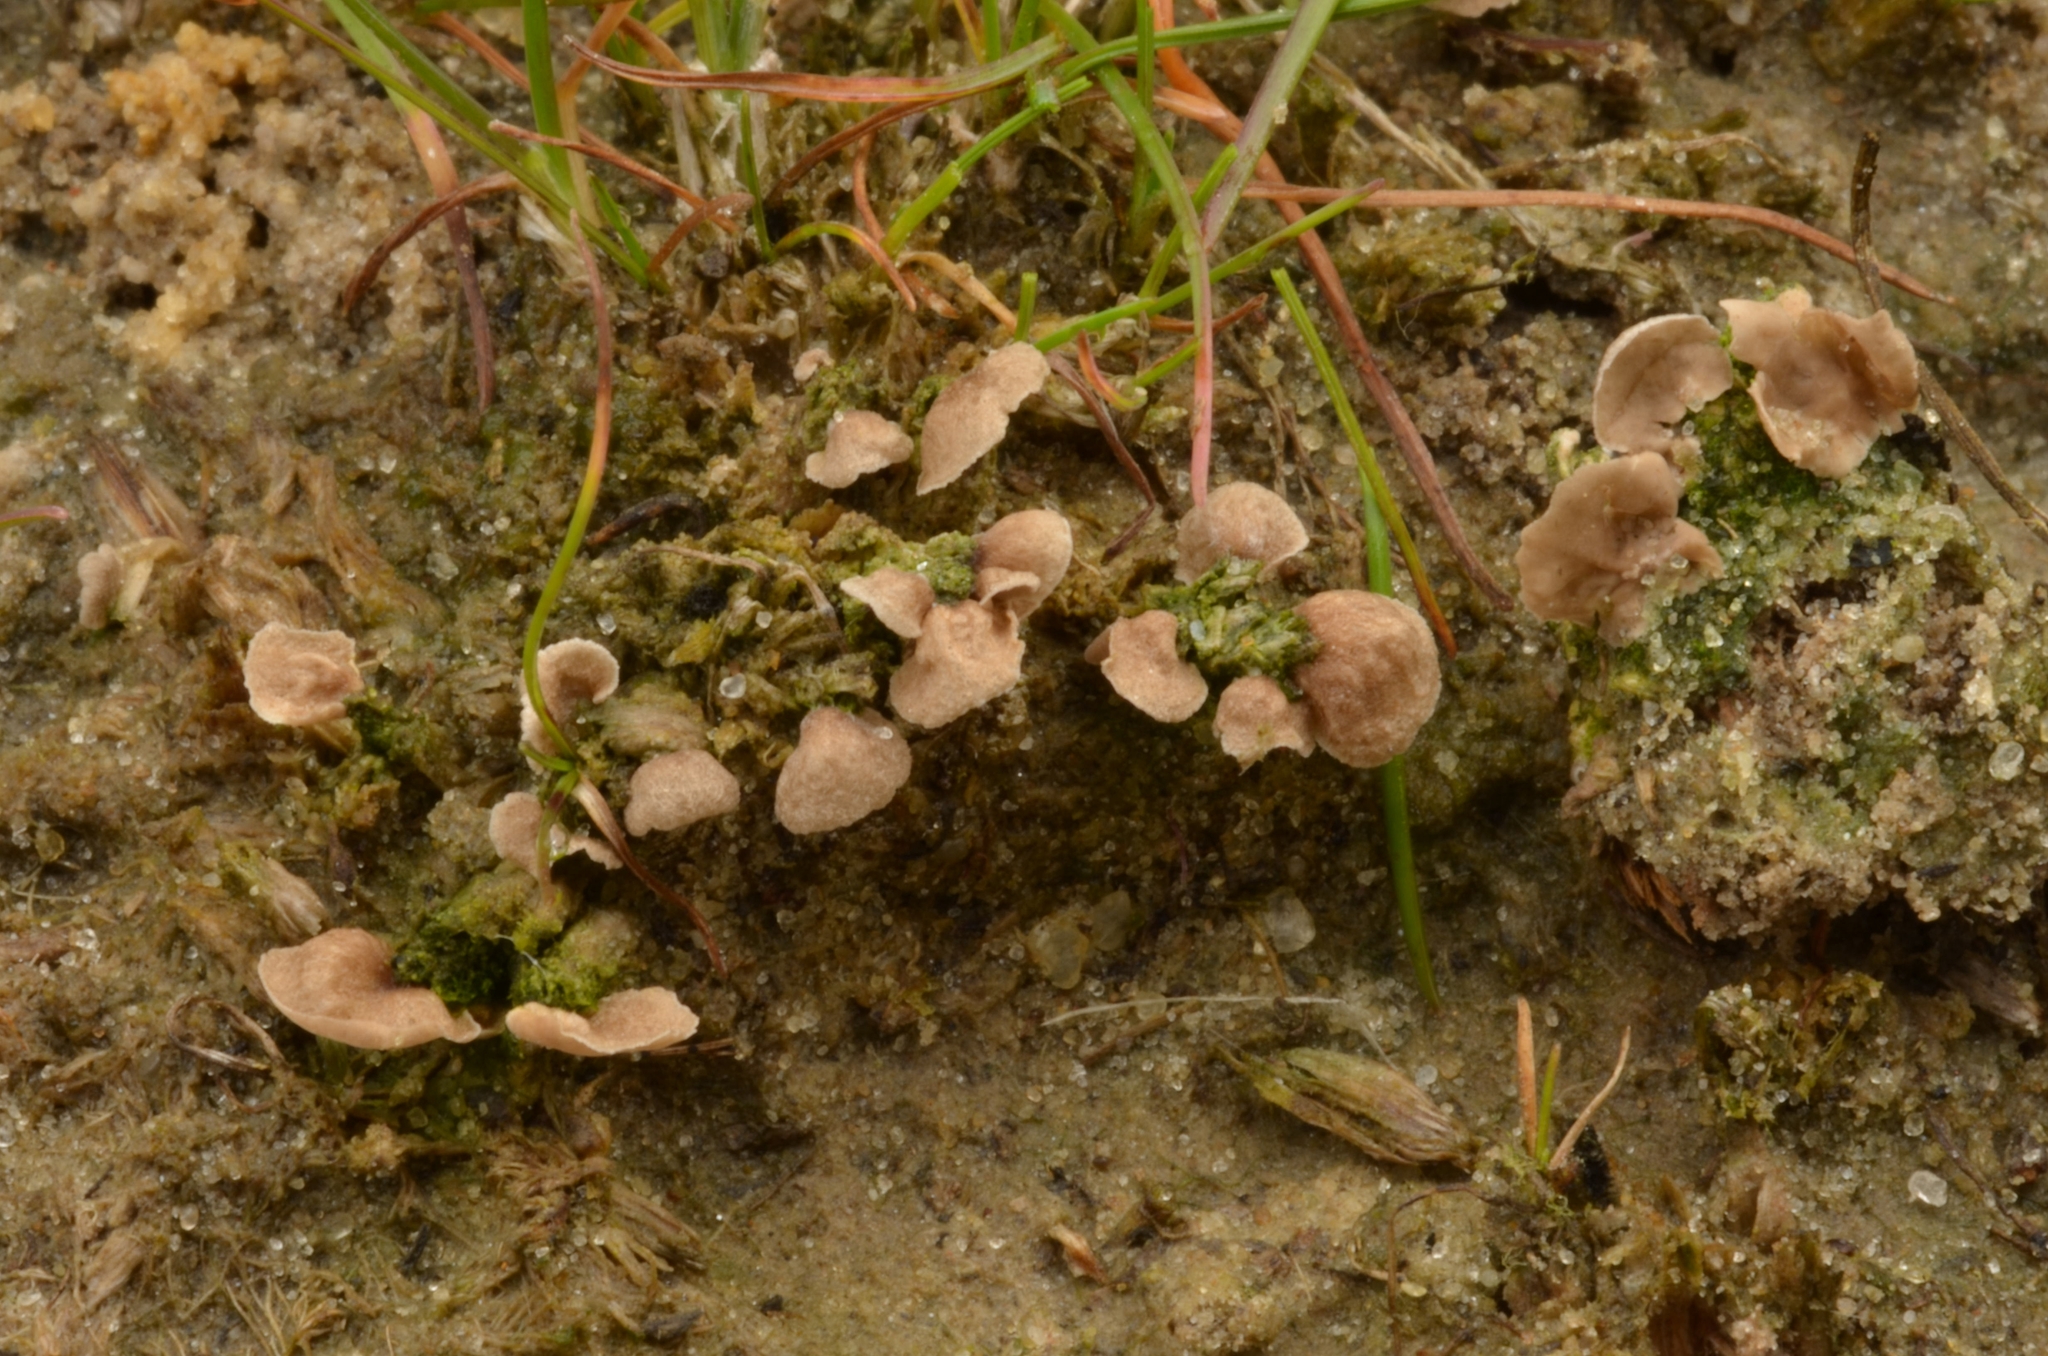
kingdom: Fungi
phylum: Basidiomycota
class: Agaricomycetes
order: Agaricales
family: Hygrophoraceae
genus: Arrhenia
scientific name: Arrhenia spathulata
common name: Spatulate oysterling
